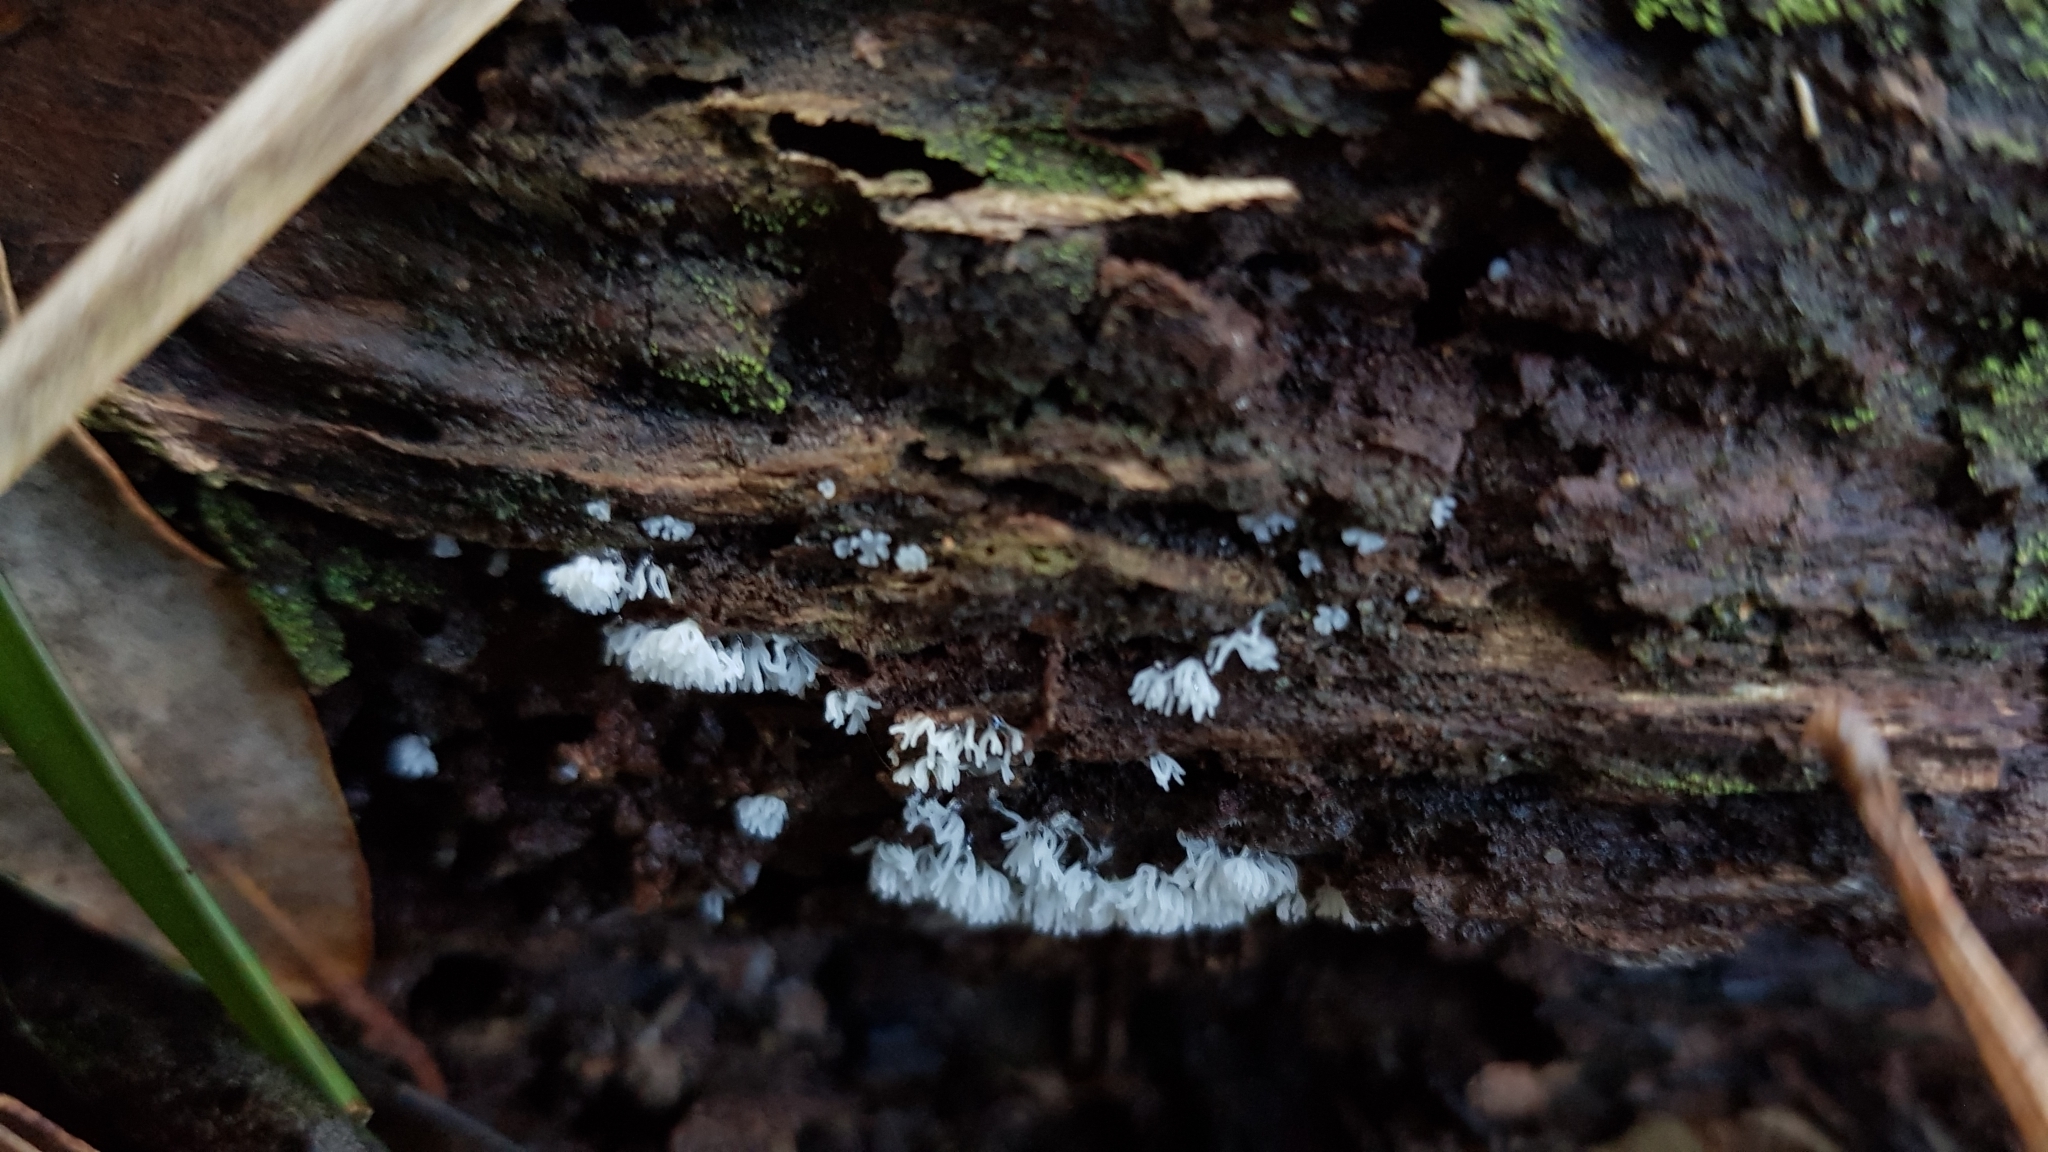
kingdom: Protozoa
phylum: Mycetozoa
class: Protosteliomycetes
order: Ceratiomyxales
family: Ceratiomyxaceae
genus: Ceratiomyxa
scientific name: Ceratiomyxa fruticulosa
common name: Honeycomb coral slime mold
